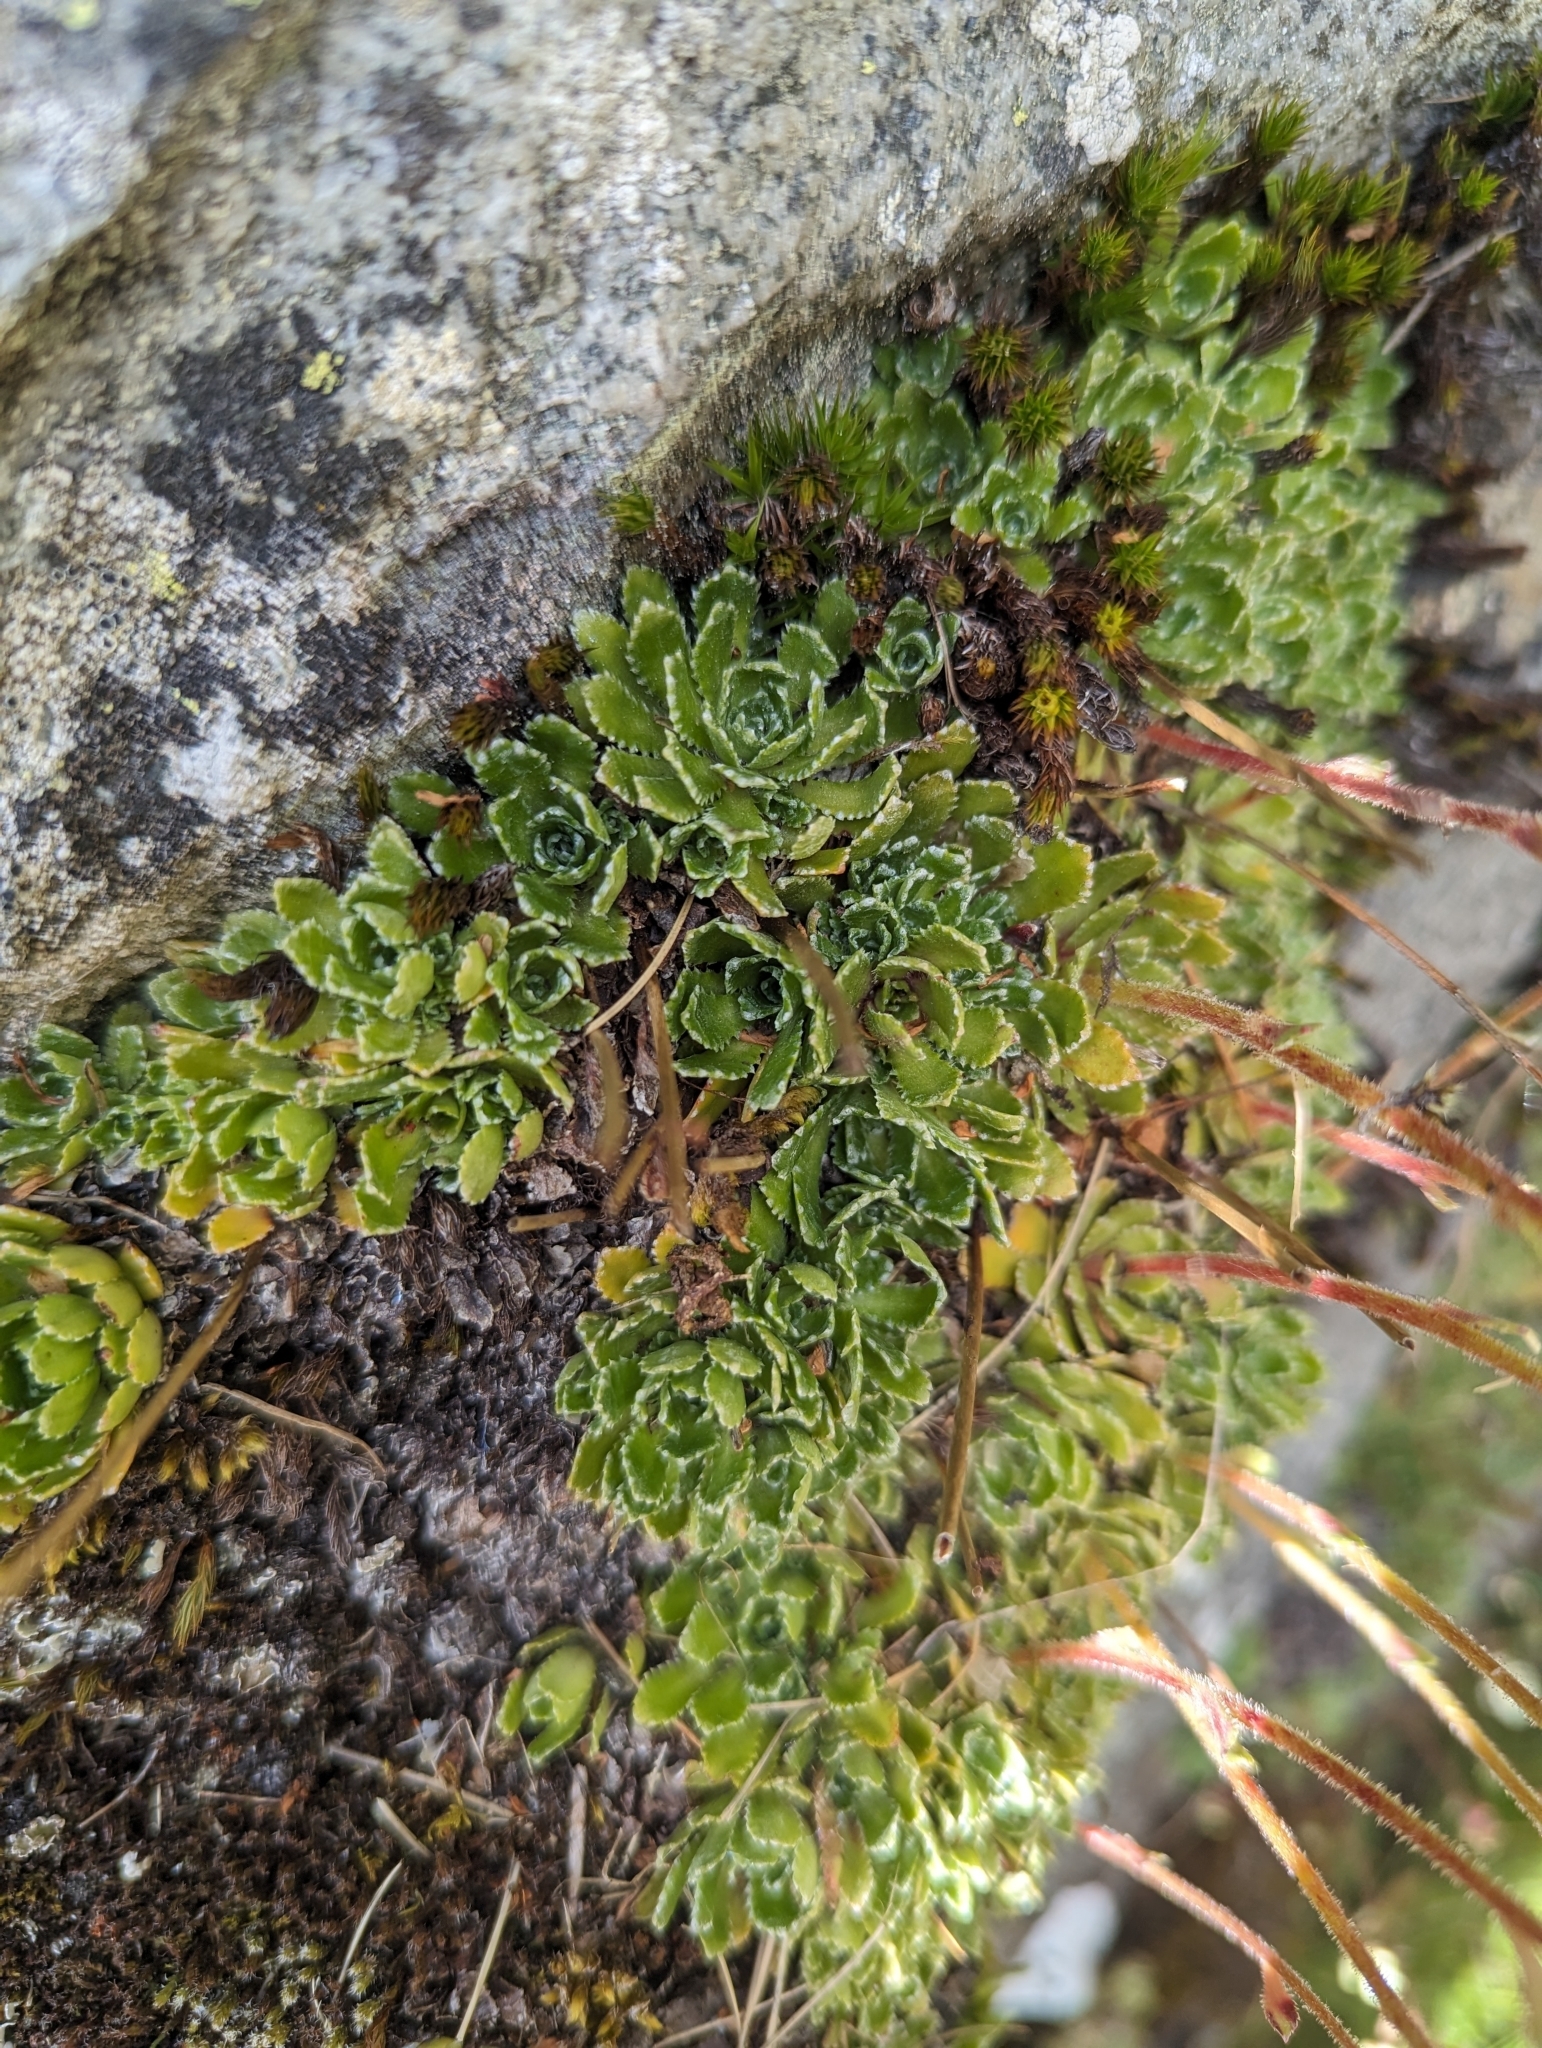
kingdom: Plantae
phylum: Tracheophyta
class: Magnoliopsida
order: Saxifragales
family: Saxifragaceae
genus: Saxifraga
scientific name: Saxifraga paniculata
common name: Livelong saxifrage
